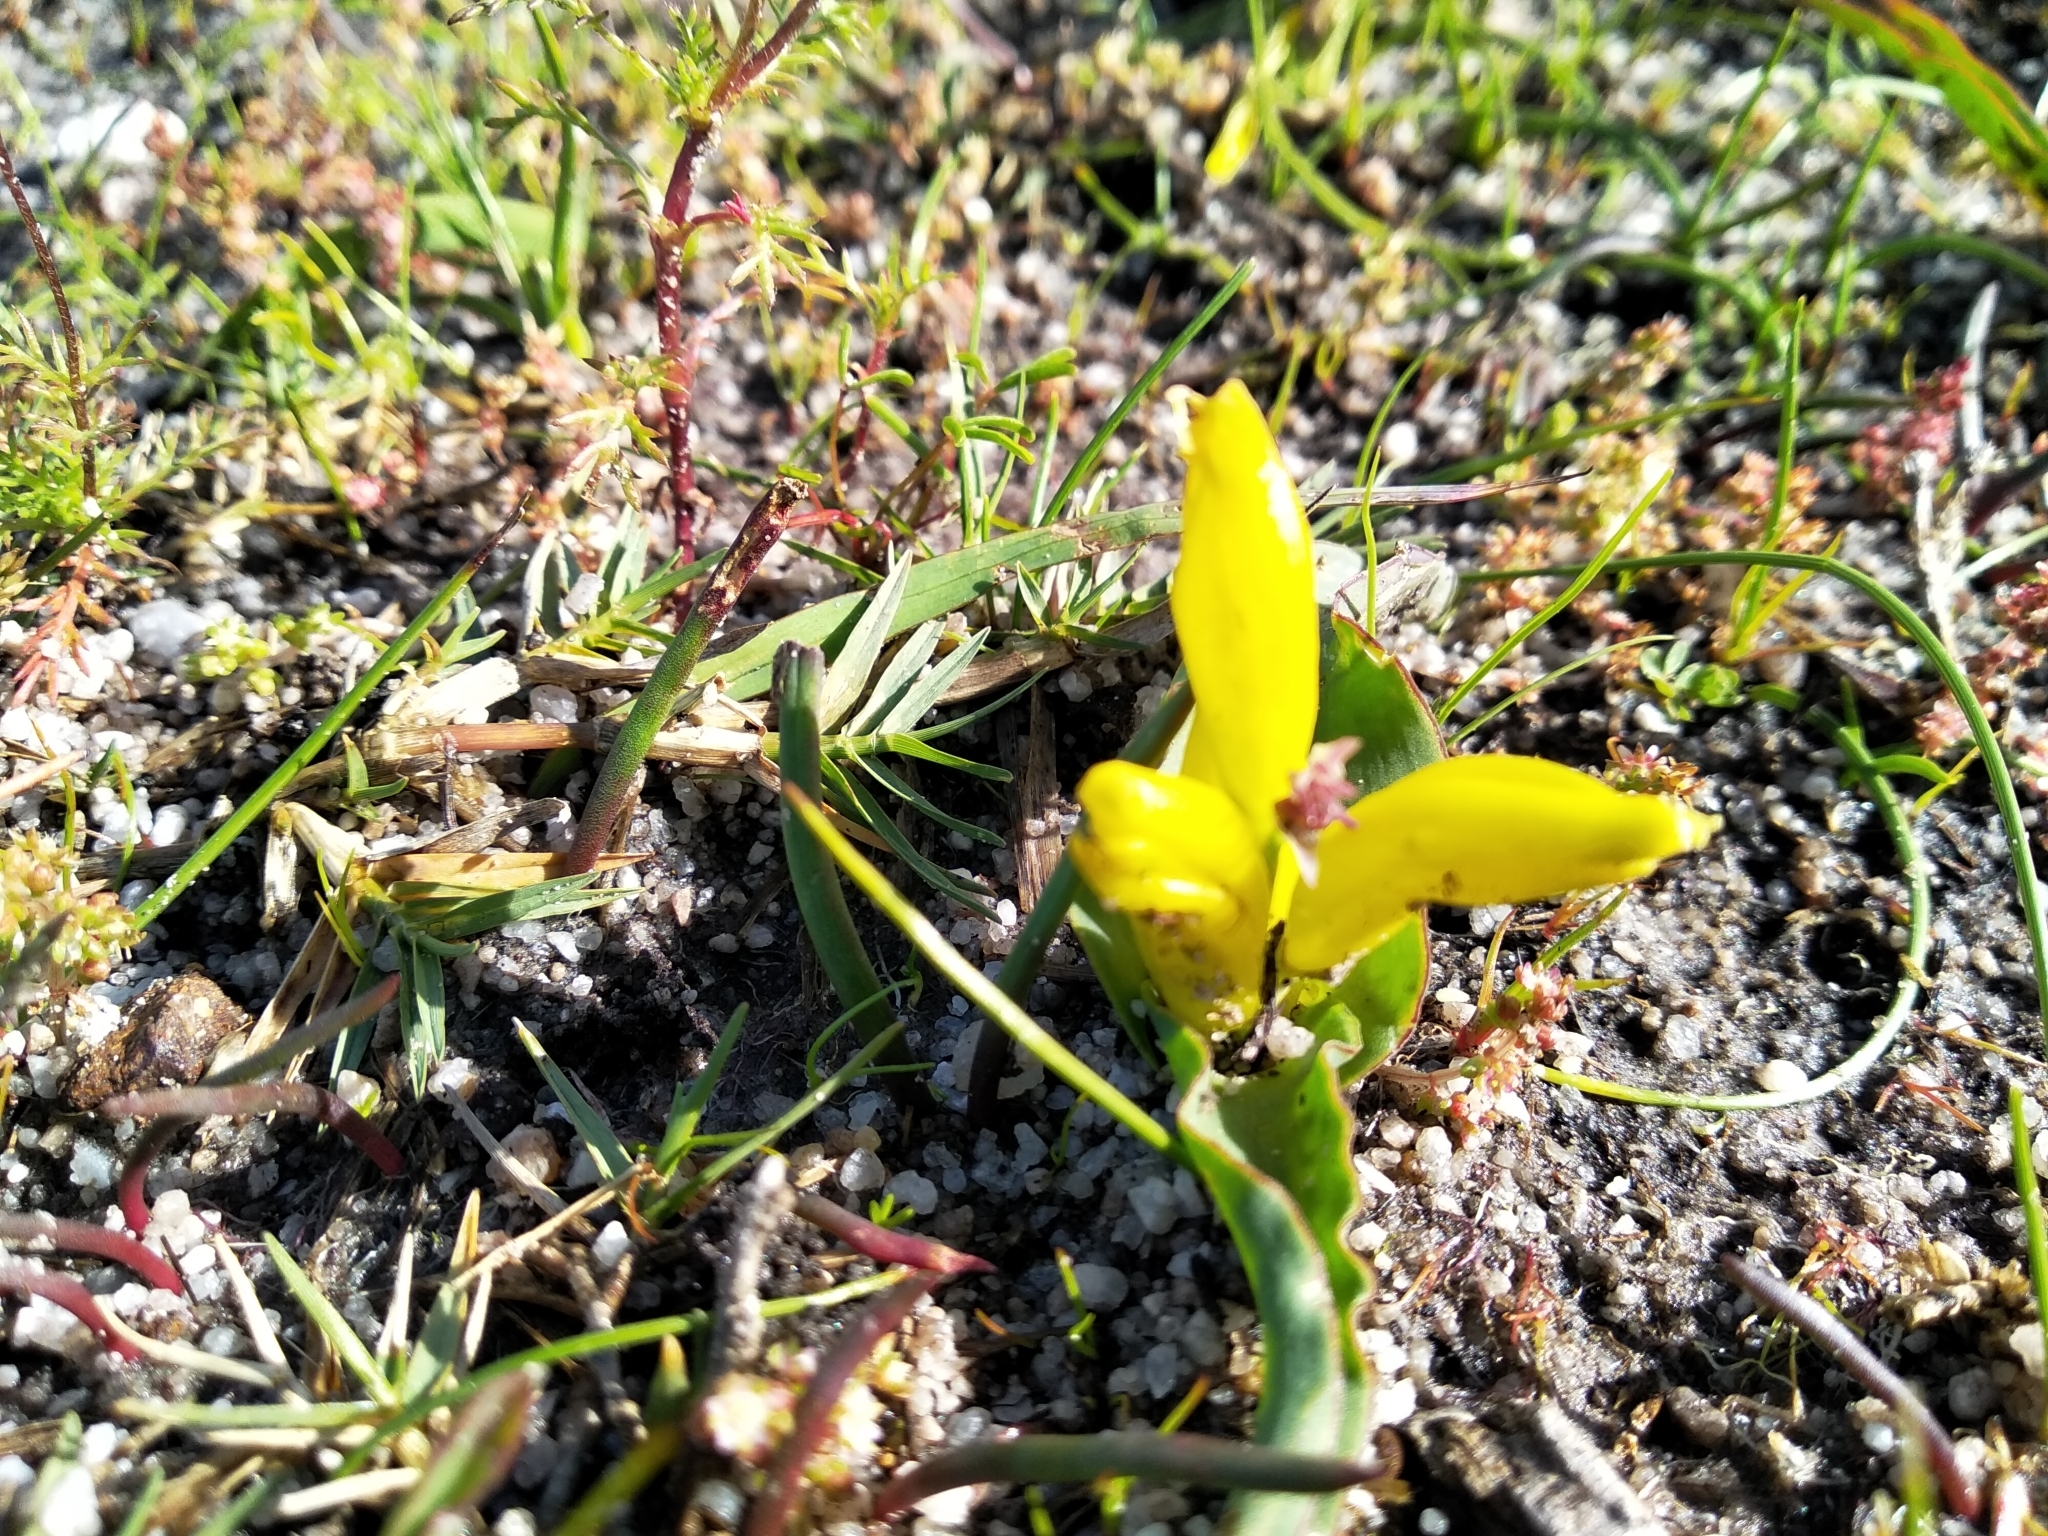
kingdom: Plantae
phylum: Tracheophyta
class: Liliopsida
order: Asparagales
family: Asparagaceae
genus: Lachenalia
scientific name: Lachenalia reflexa
